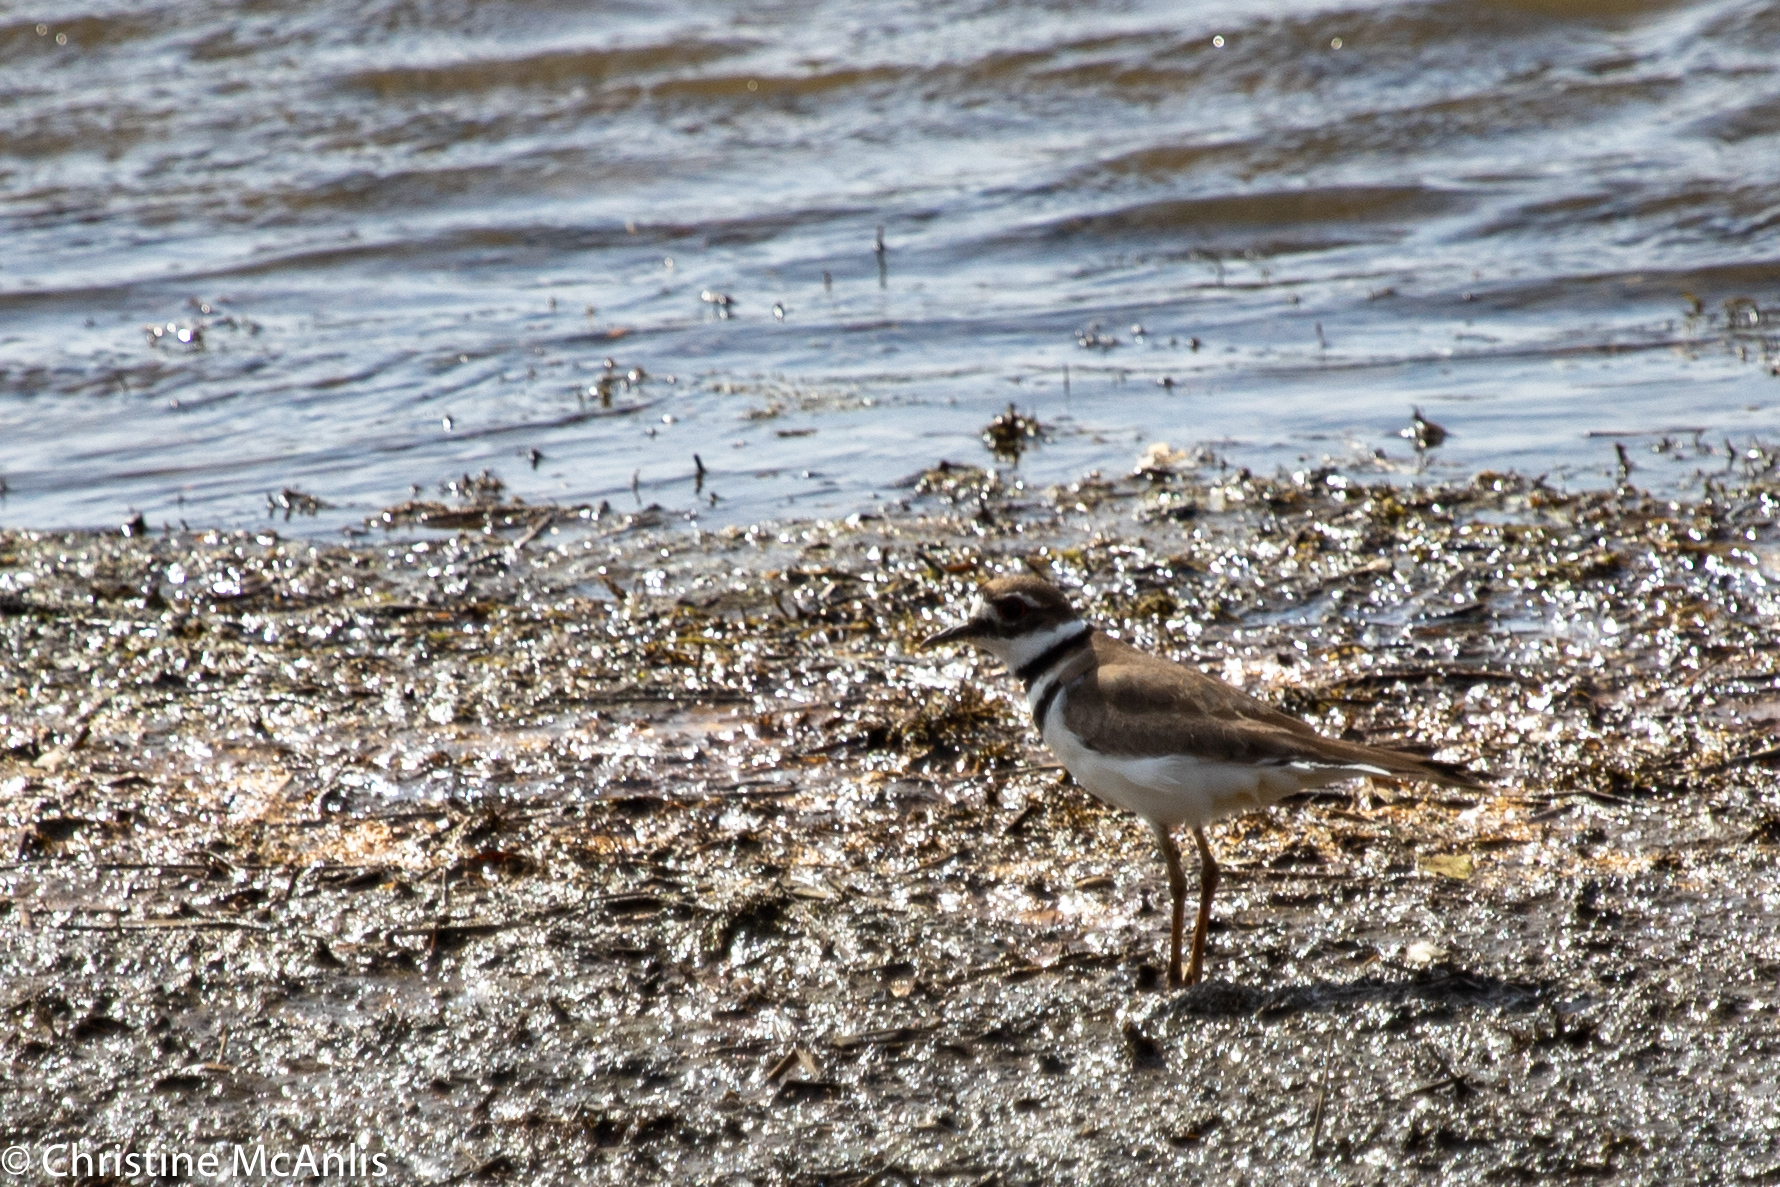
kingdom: Animalia
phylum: Chordata
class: Aves
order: Charadriiformes
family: Charadriidae
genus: Charadrius
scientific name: Charadrius vociferus
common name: Killdeer
